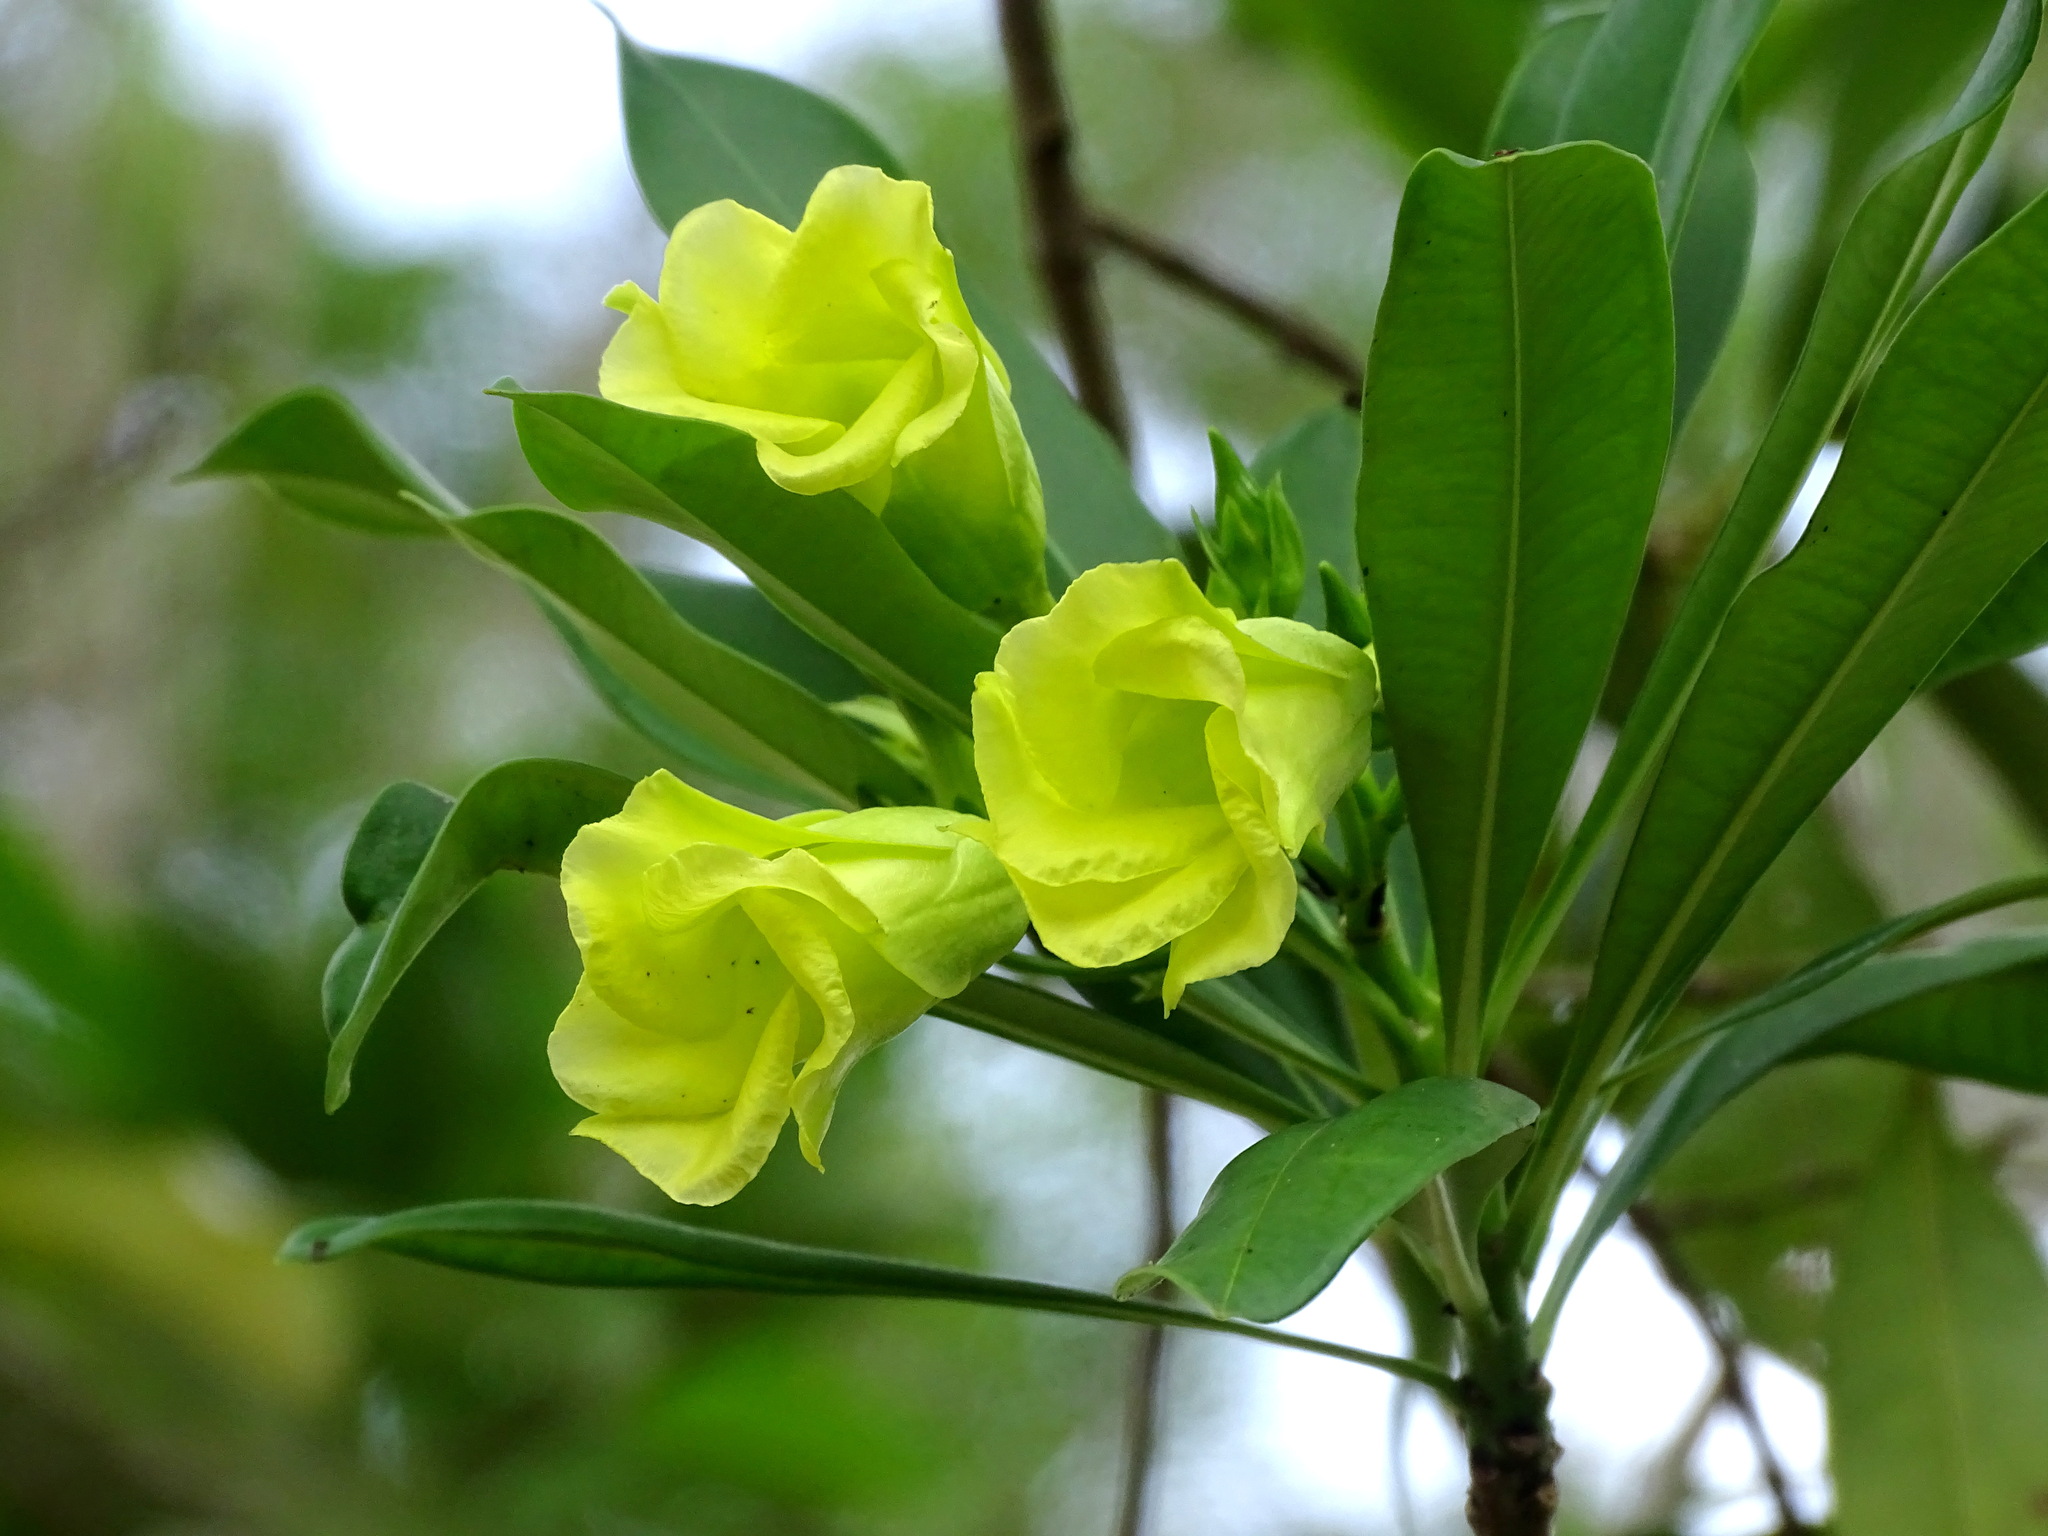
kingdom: Plantae
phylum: Tracheophyta
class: Magnoliopsida
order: Gentianales
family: Apocynaceae
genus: Cascabela
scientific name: Cascabela gaumeri
